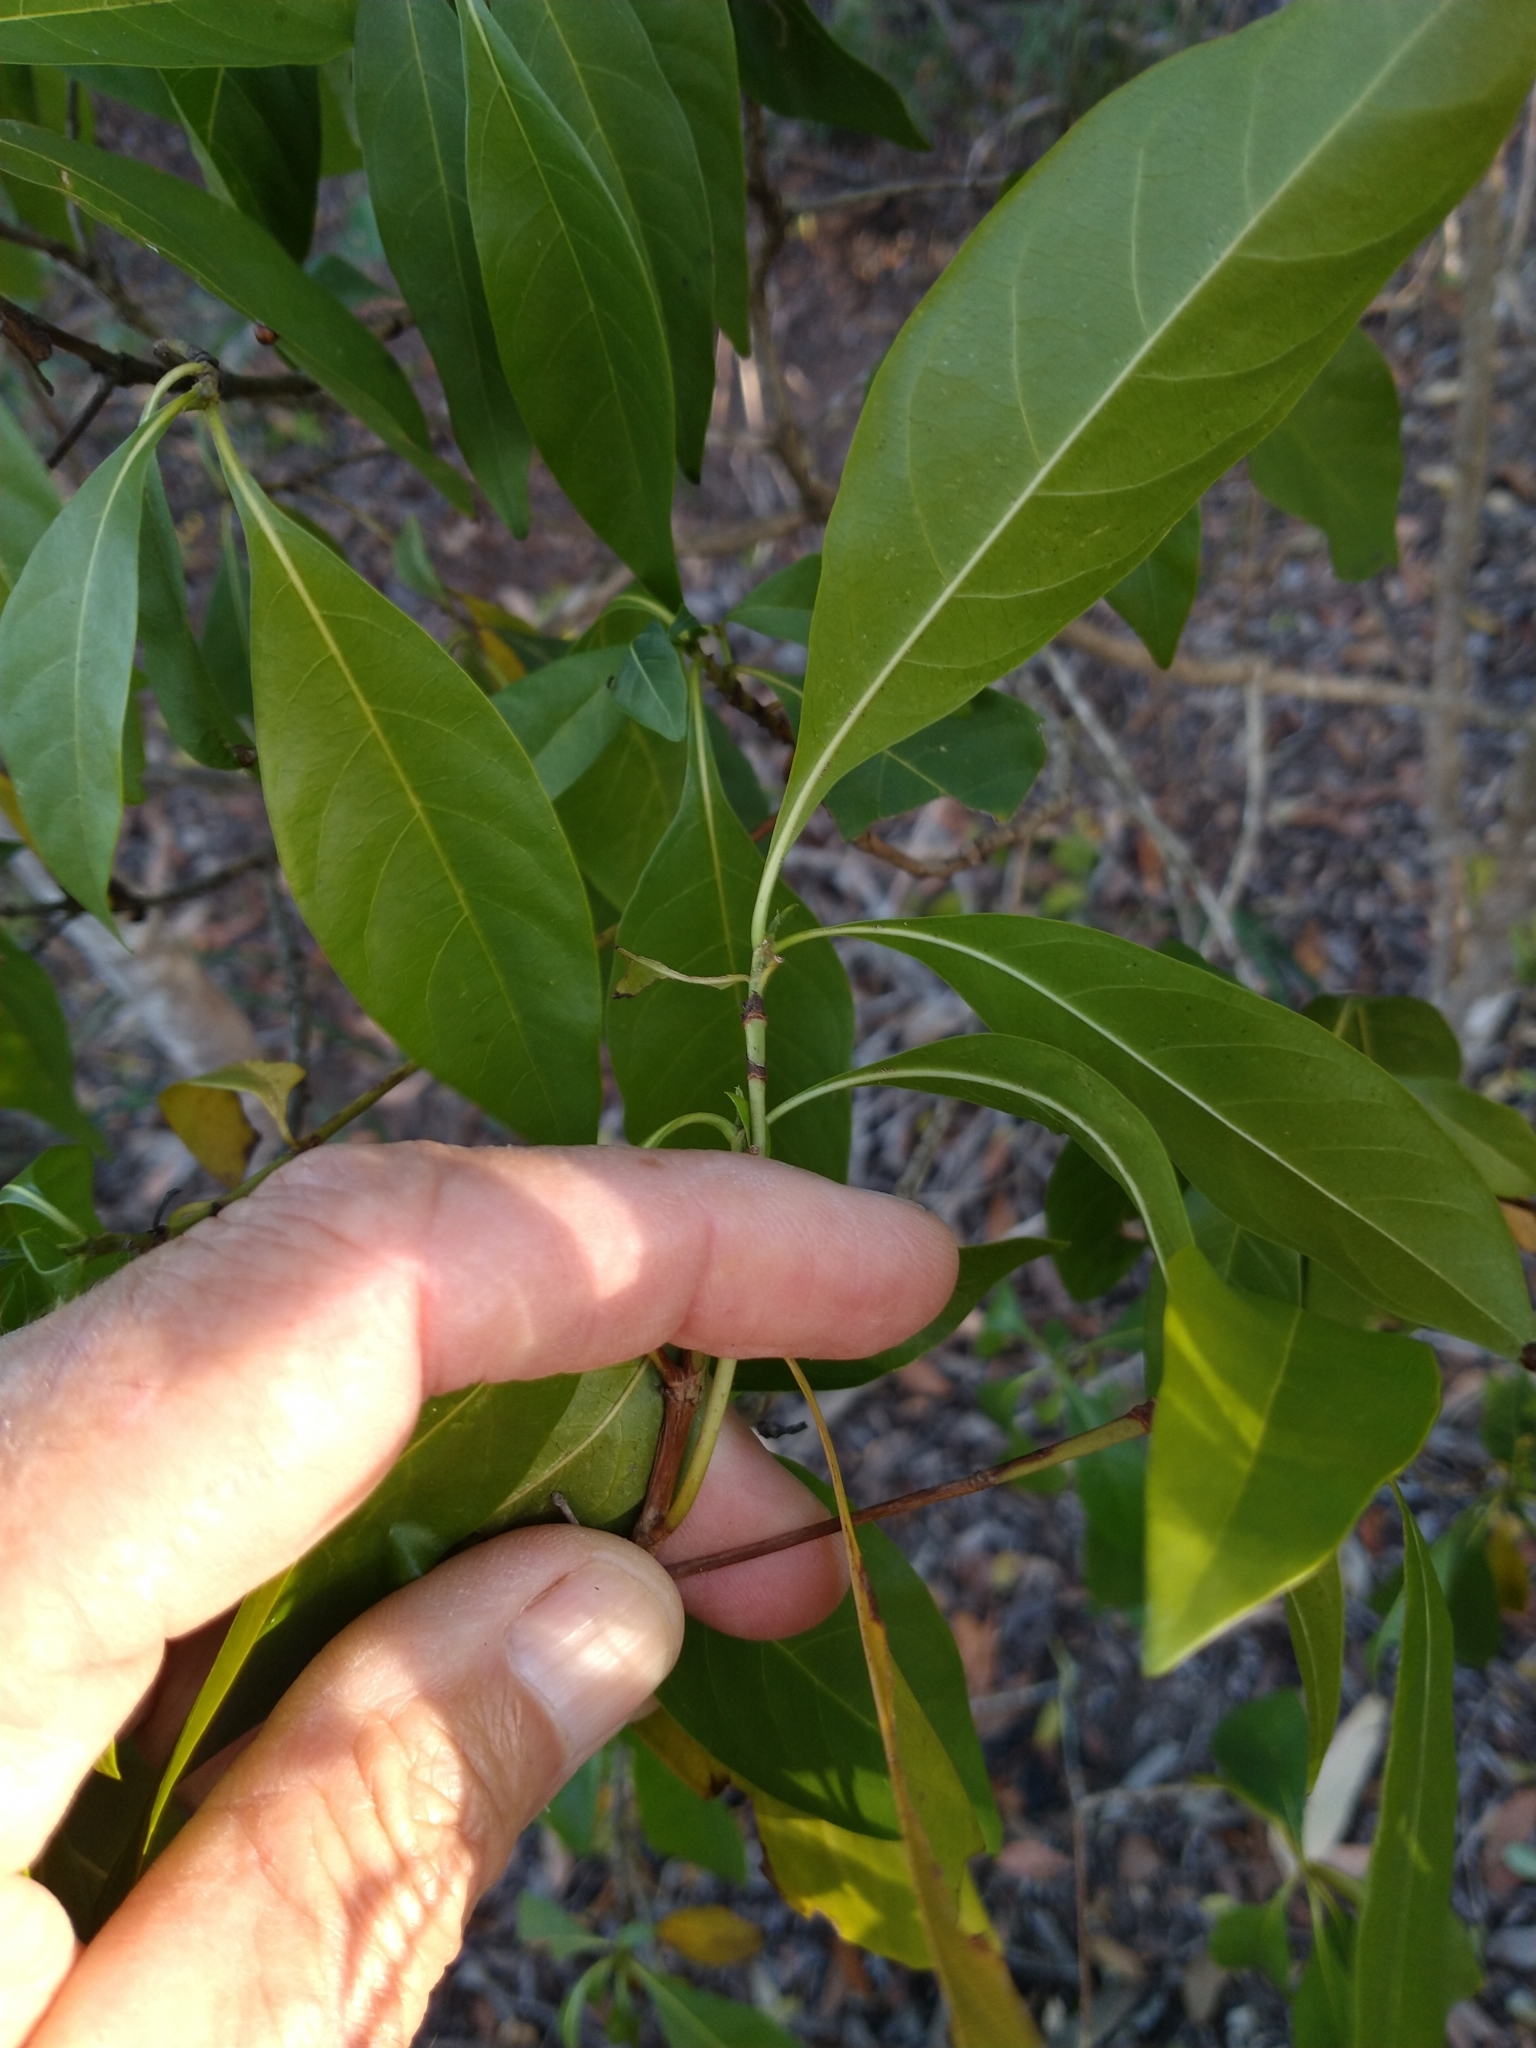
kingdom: Plantae
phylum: Tracheophyta
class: Magnoliopsida
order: Gentianales
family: Rubiaceae
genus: Pavetta
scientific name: Pavetta australiensis
